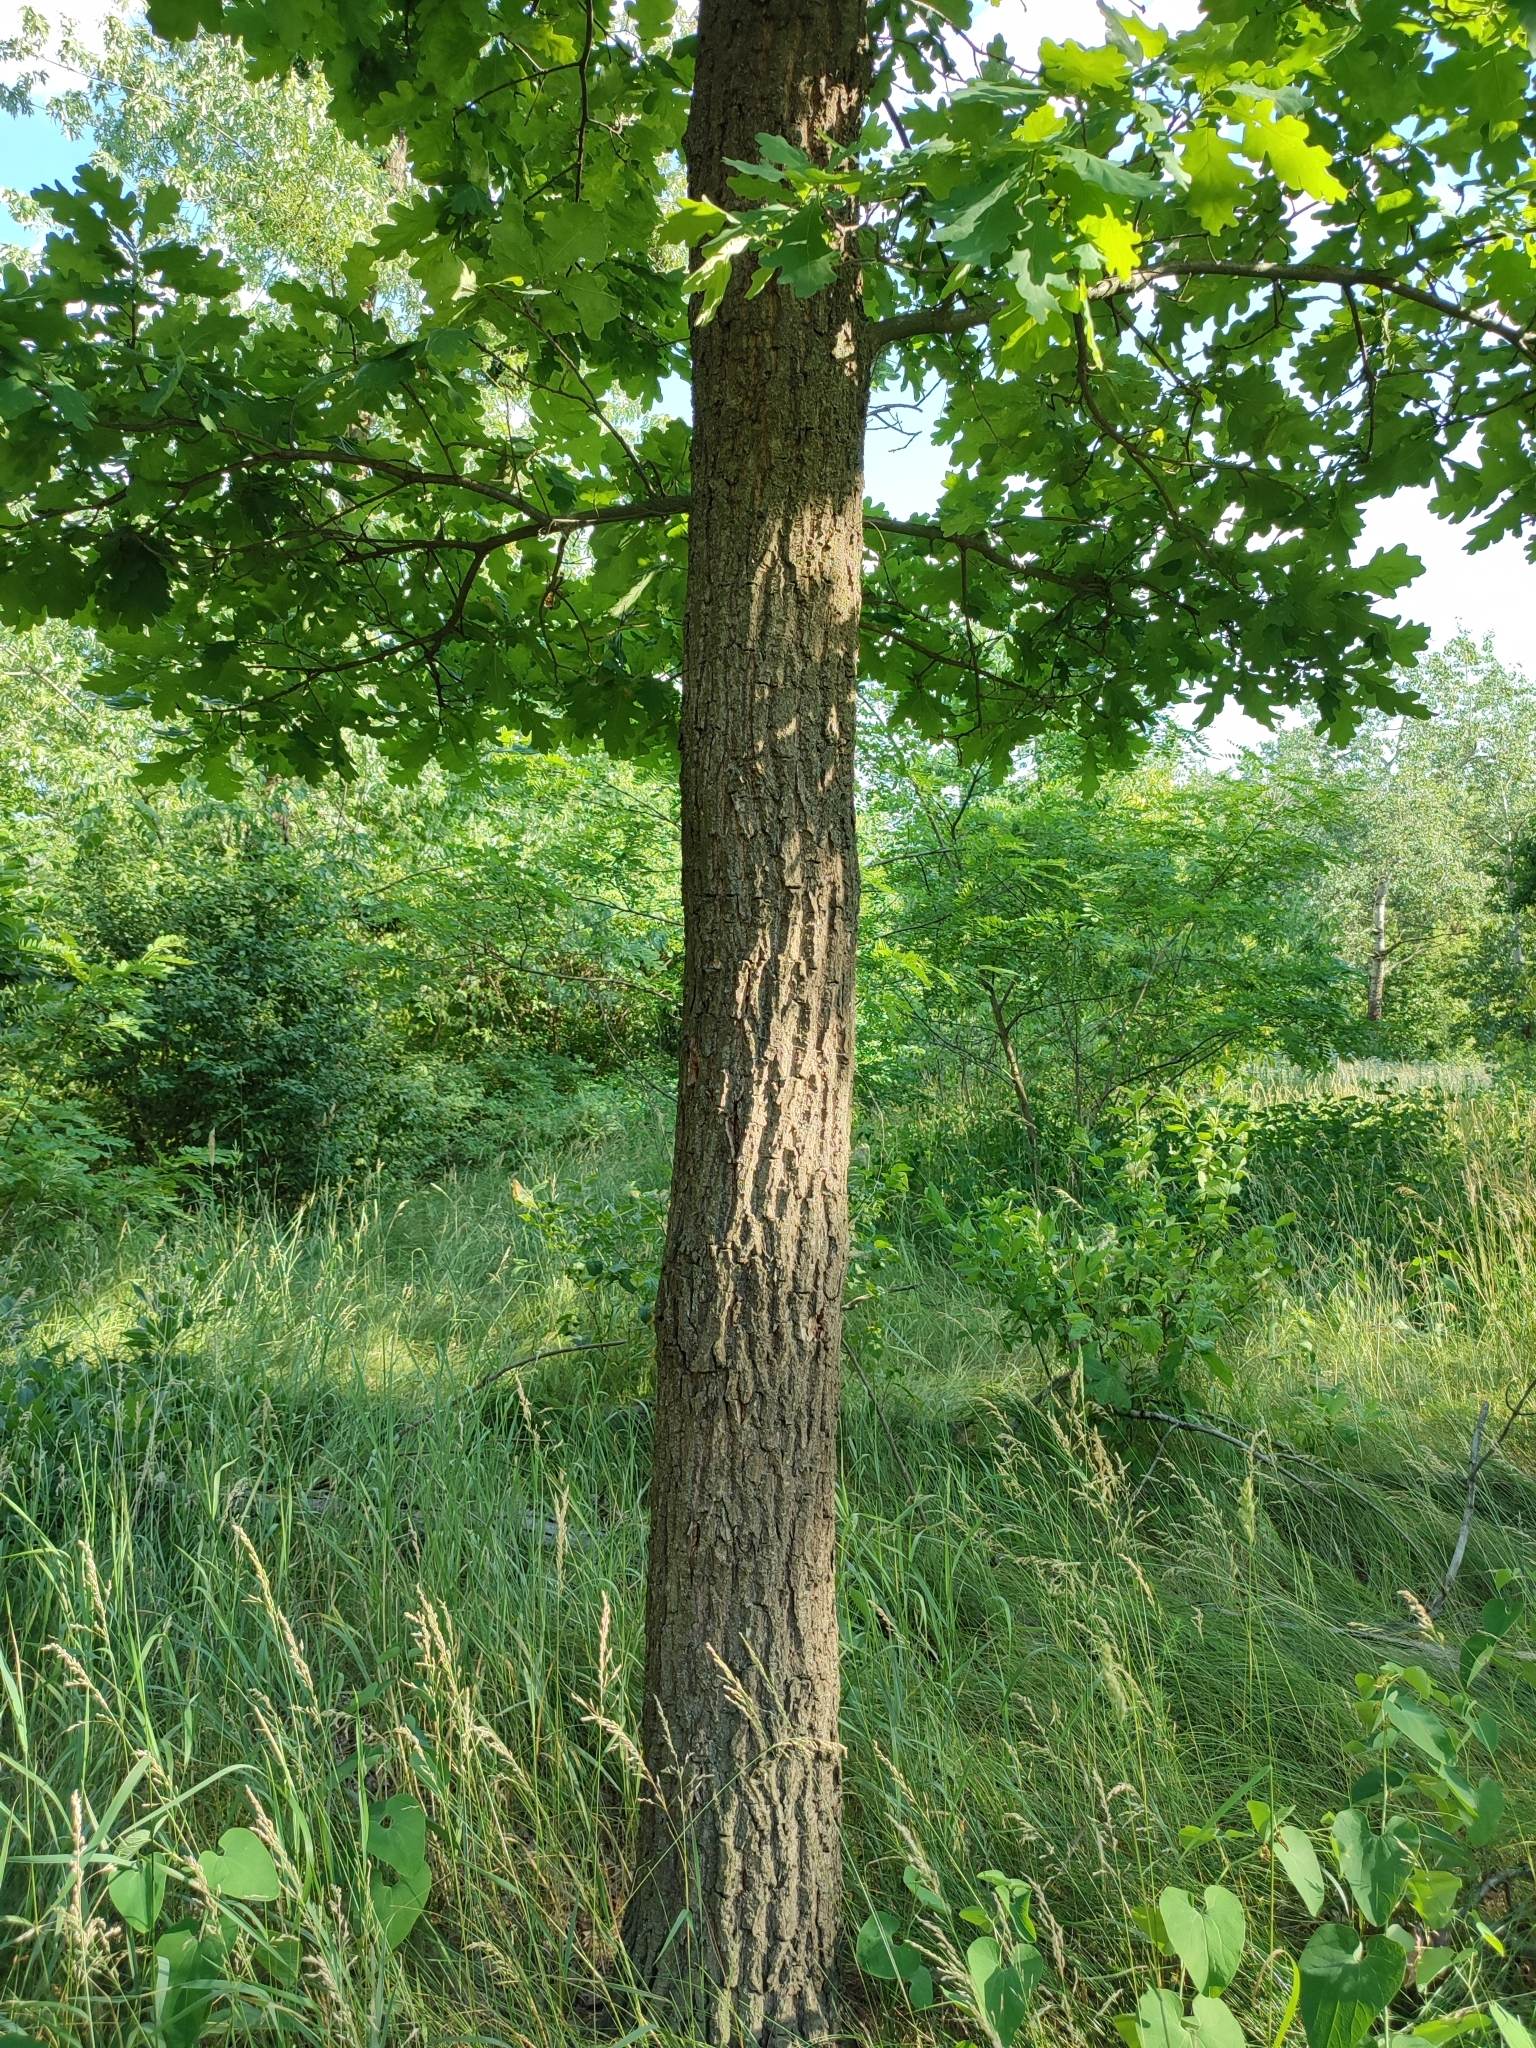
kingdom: Plantae
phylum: Tracheophyta
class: Magnoliopsida
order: Fagales
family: Fagaceae
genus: Quercus
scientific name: Quercus robur
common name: Pedunculate oak
